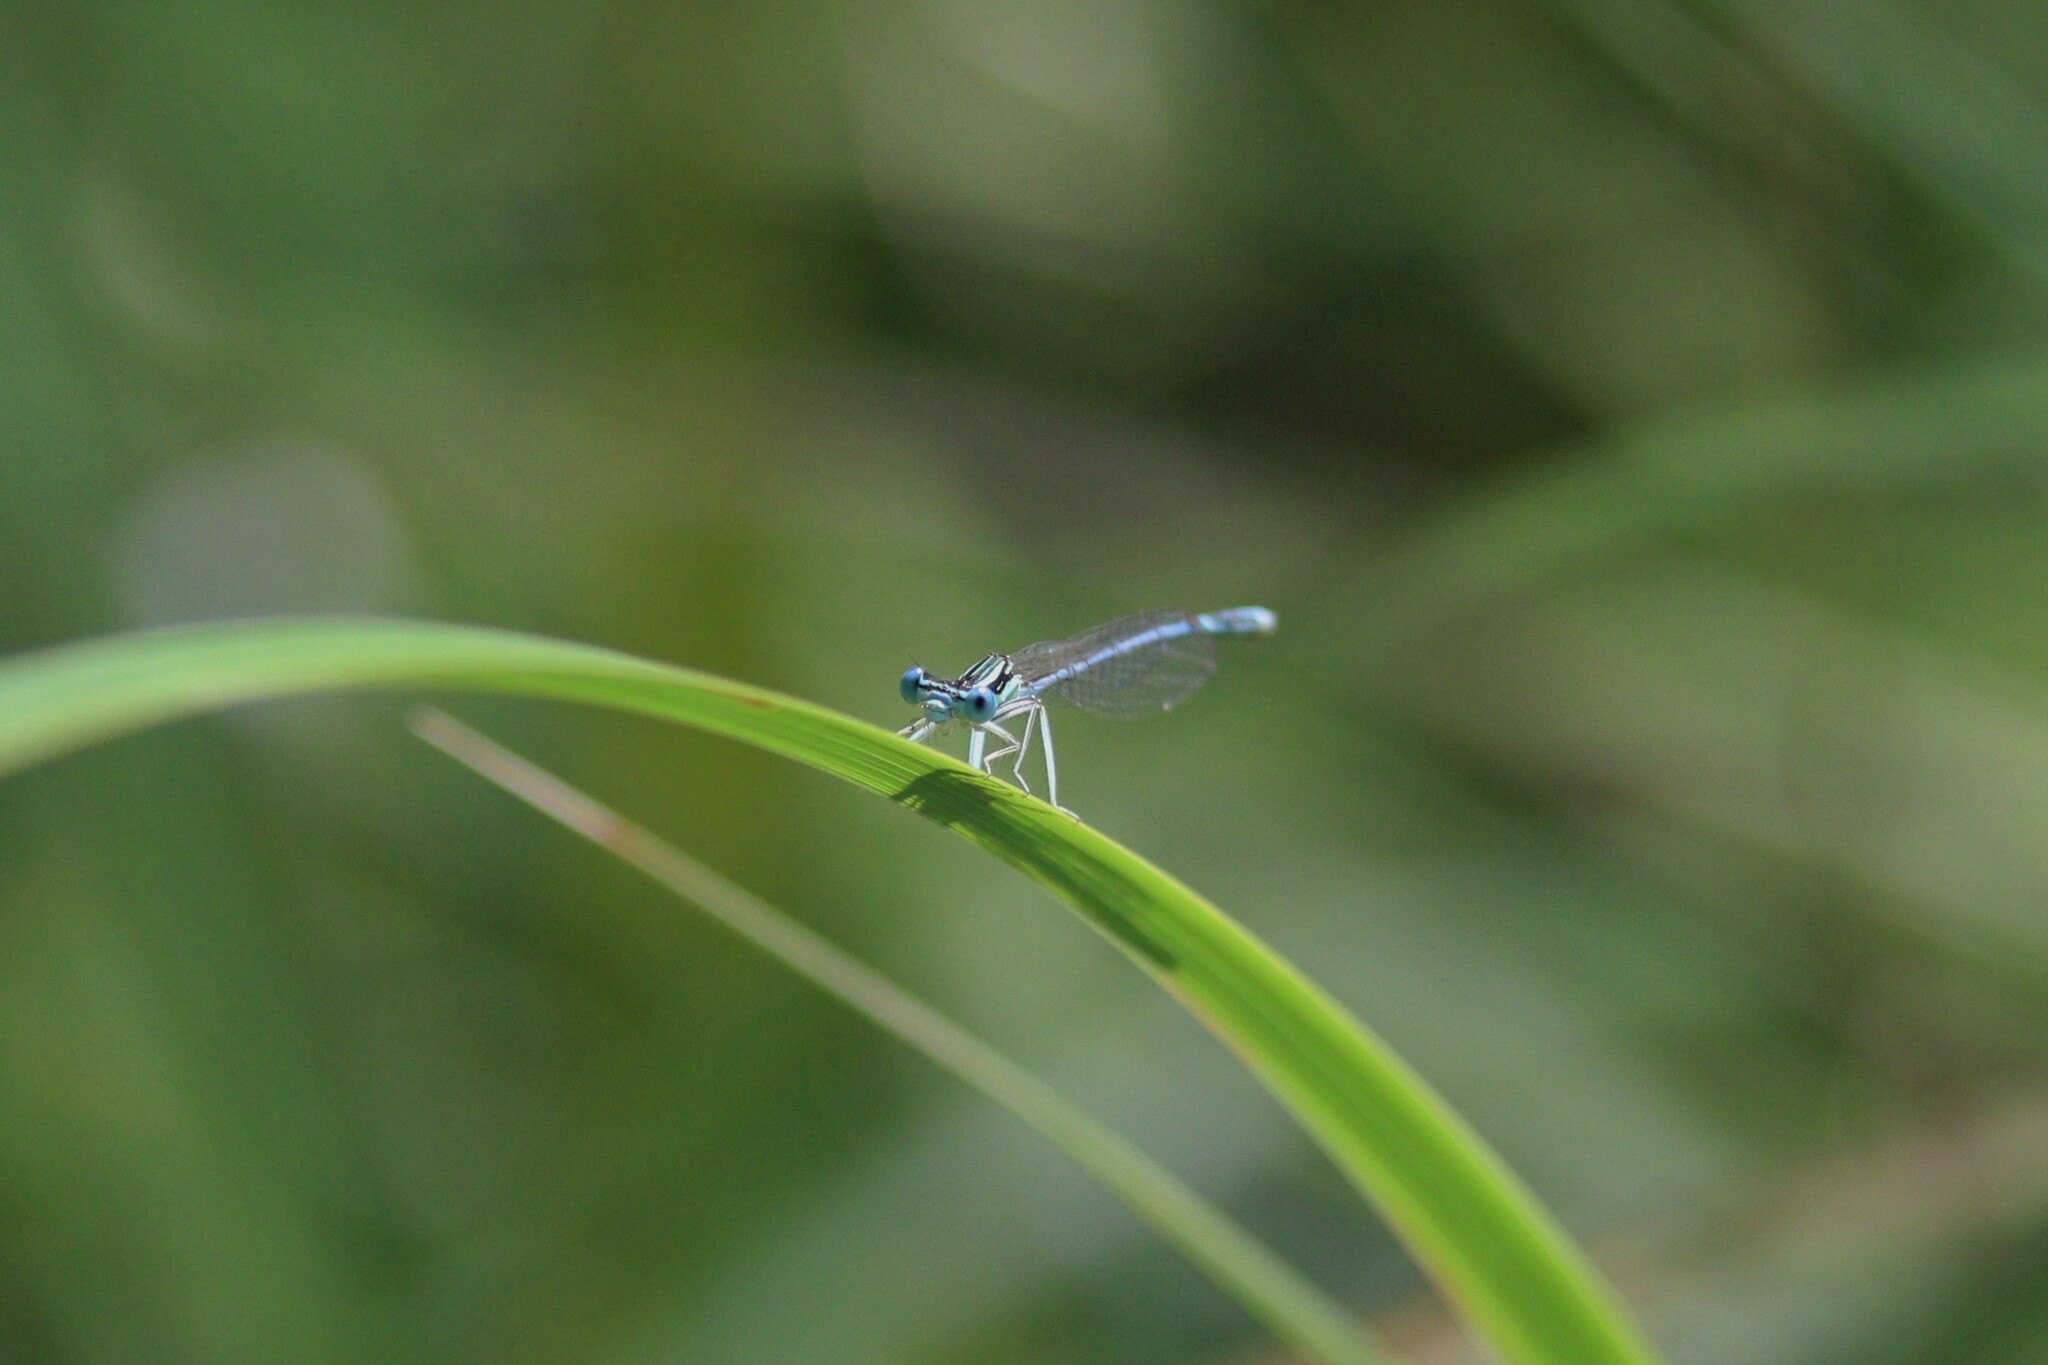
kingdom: Animalia
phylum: Arthropoda
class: Insecta
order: Odonata
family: Platycnemididae
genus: Platycnemis
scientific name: Platycnemis pennipes
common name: White-legged damselfly
